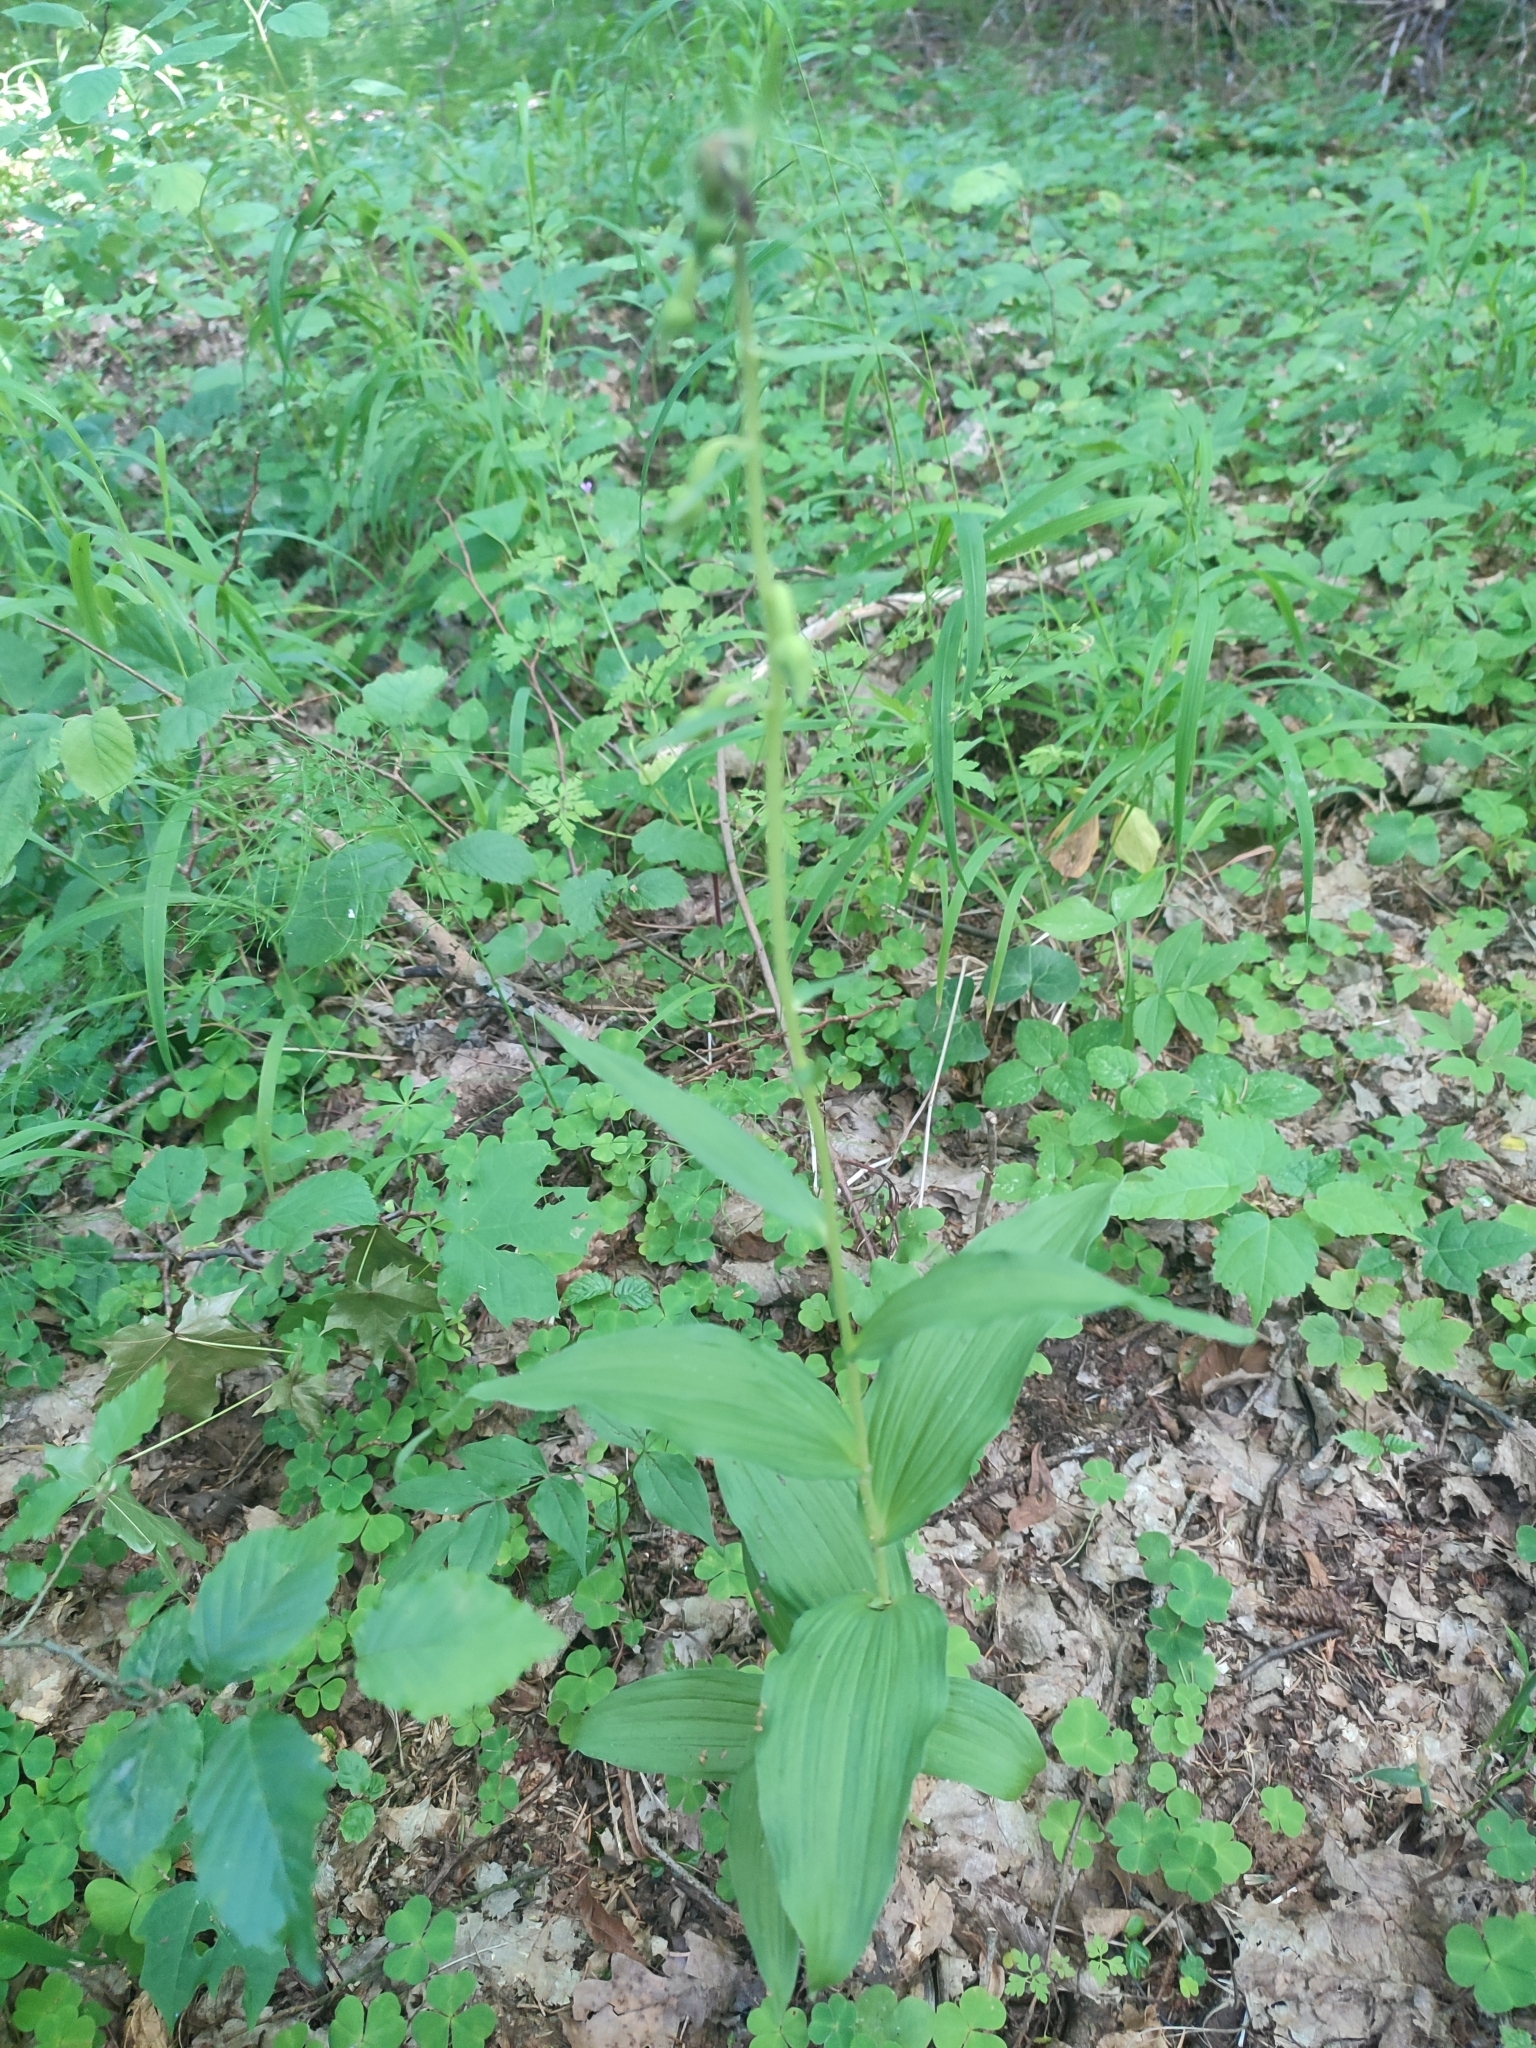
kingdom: Plantae
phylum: Tracheophyta
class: Liliopsida
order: Asparagales
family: Orchidaceae
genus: Epipactis
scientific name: Epipactis helleborine
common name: Broad-leaved helleborine
